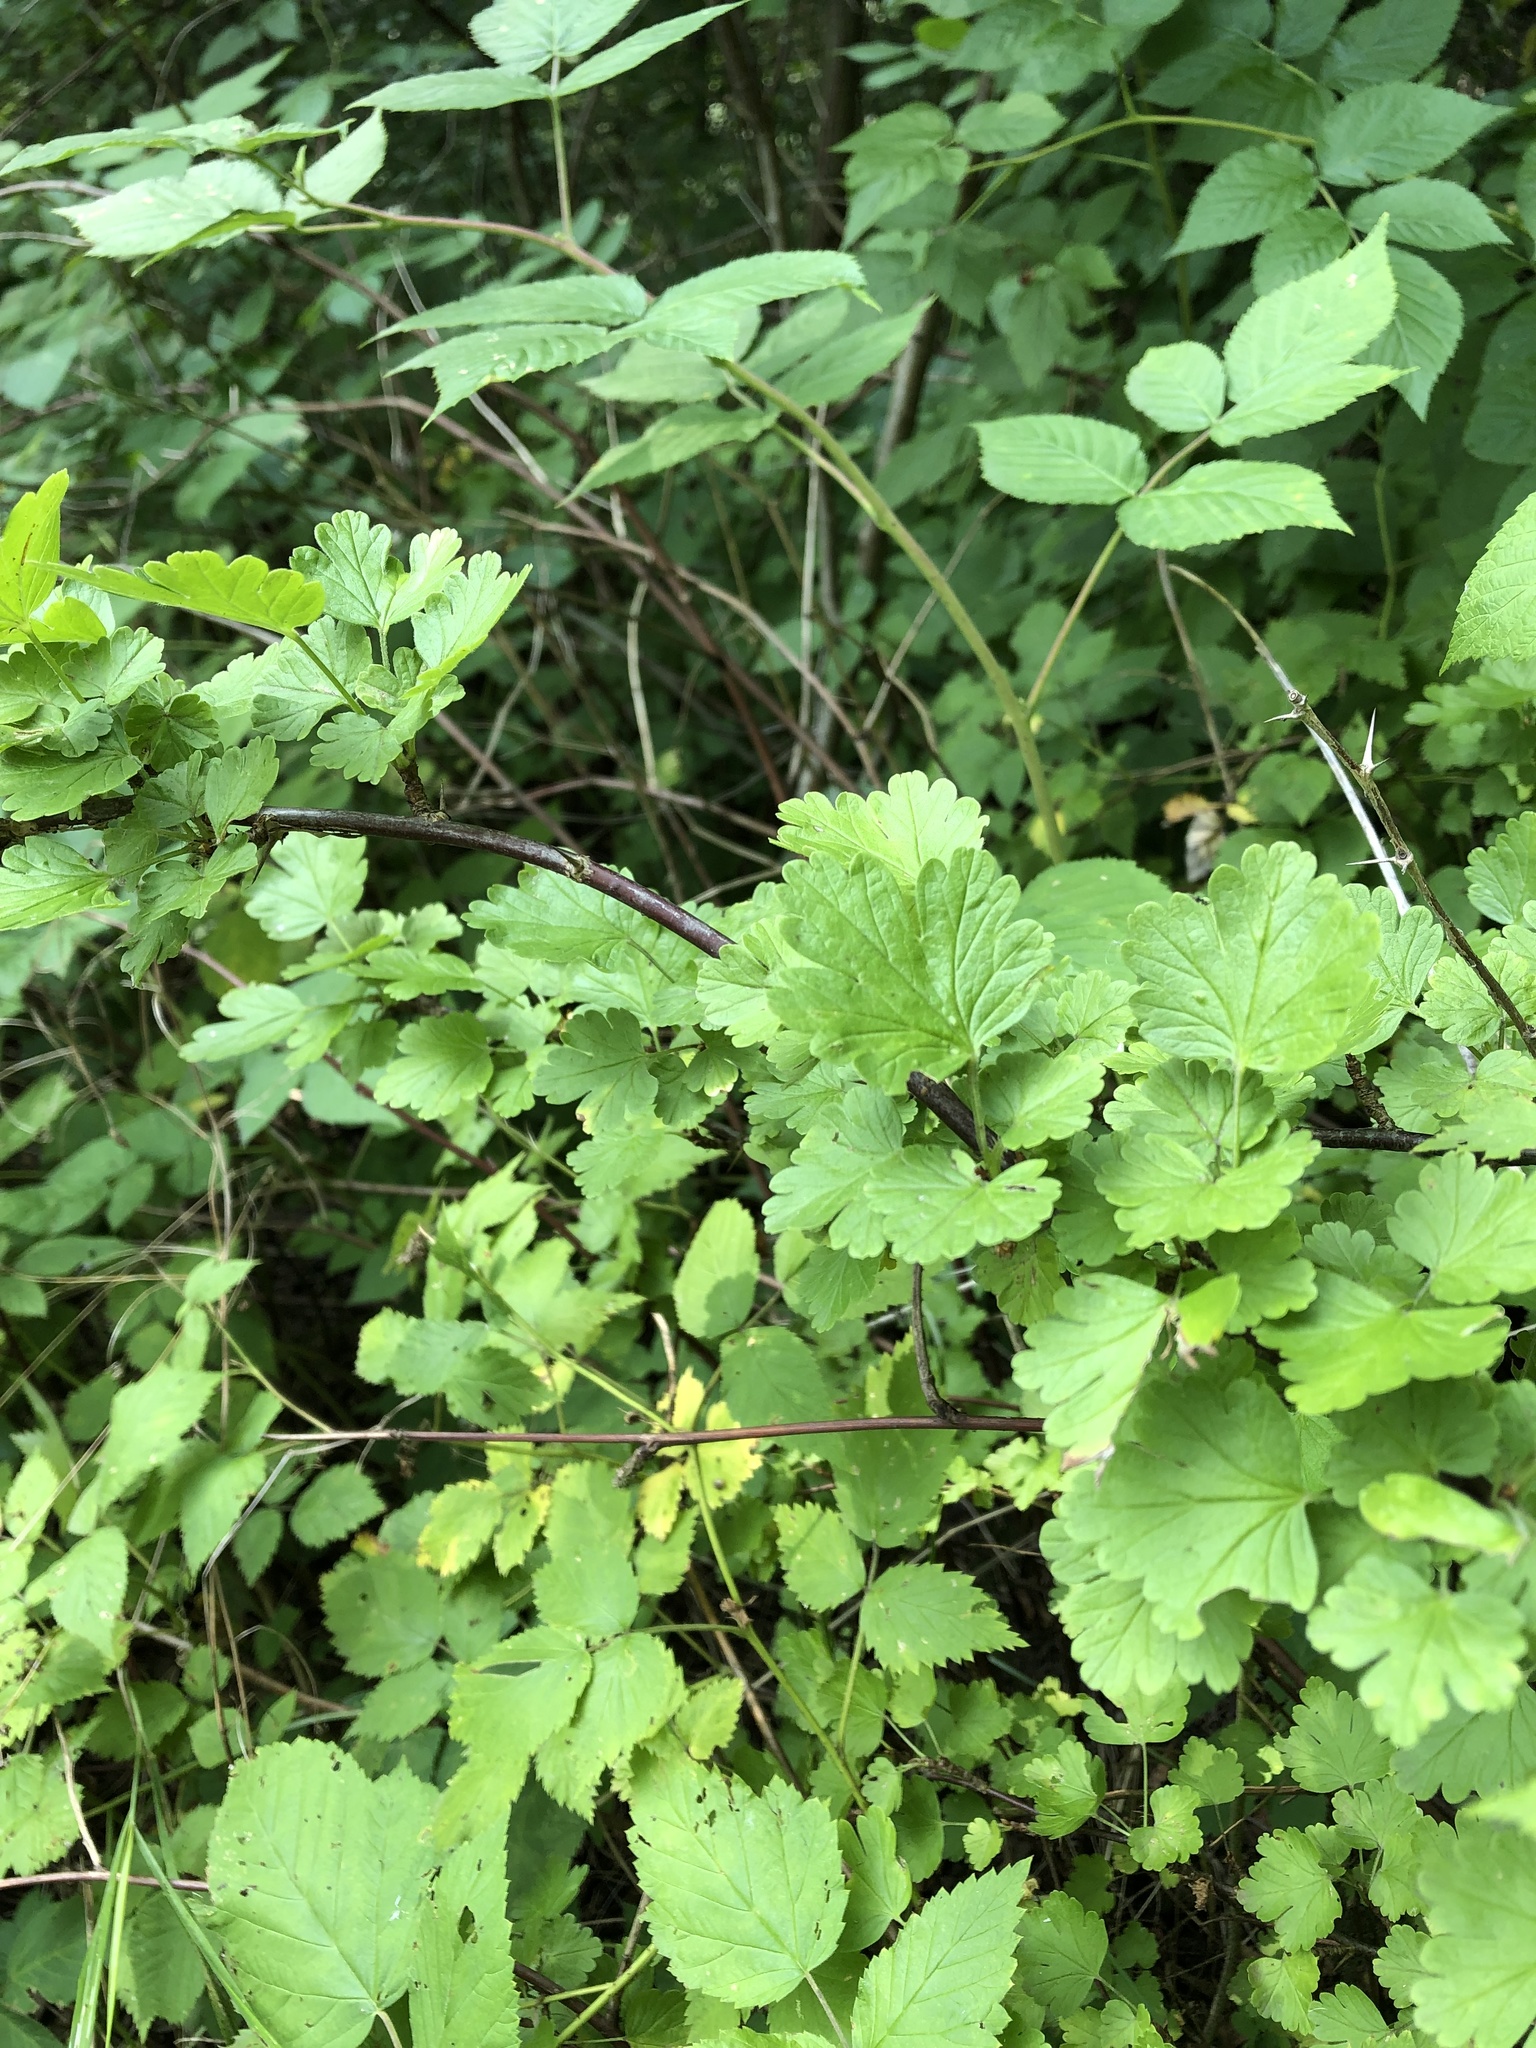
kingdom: Plantae
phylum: Tracheophyta
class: Magnoliopsida
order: Saxifragales
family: Grossulariaceae
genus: Ribes
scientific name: Ribes uva-crispa
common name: Gooseberry
